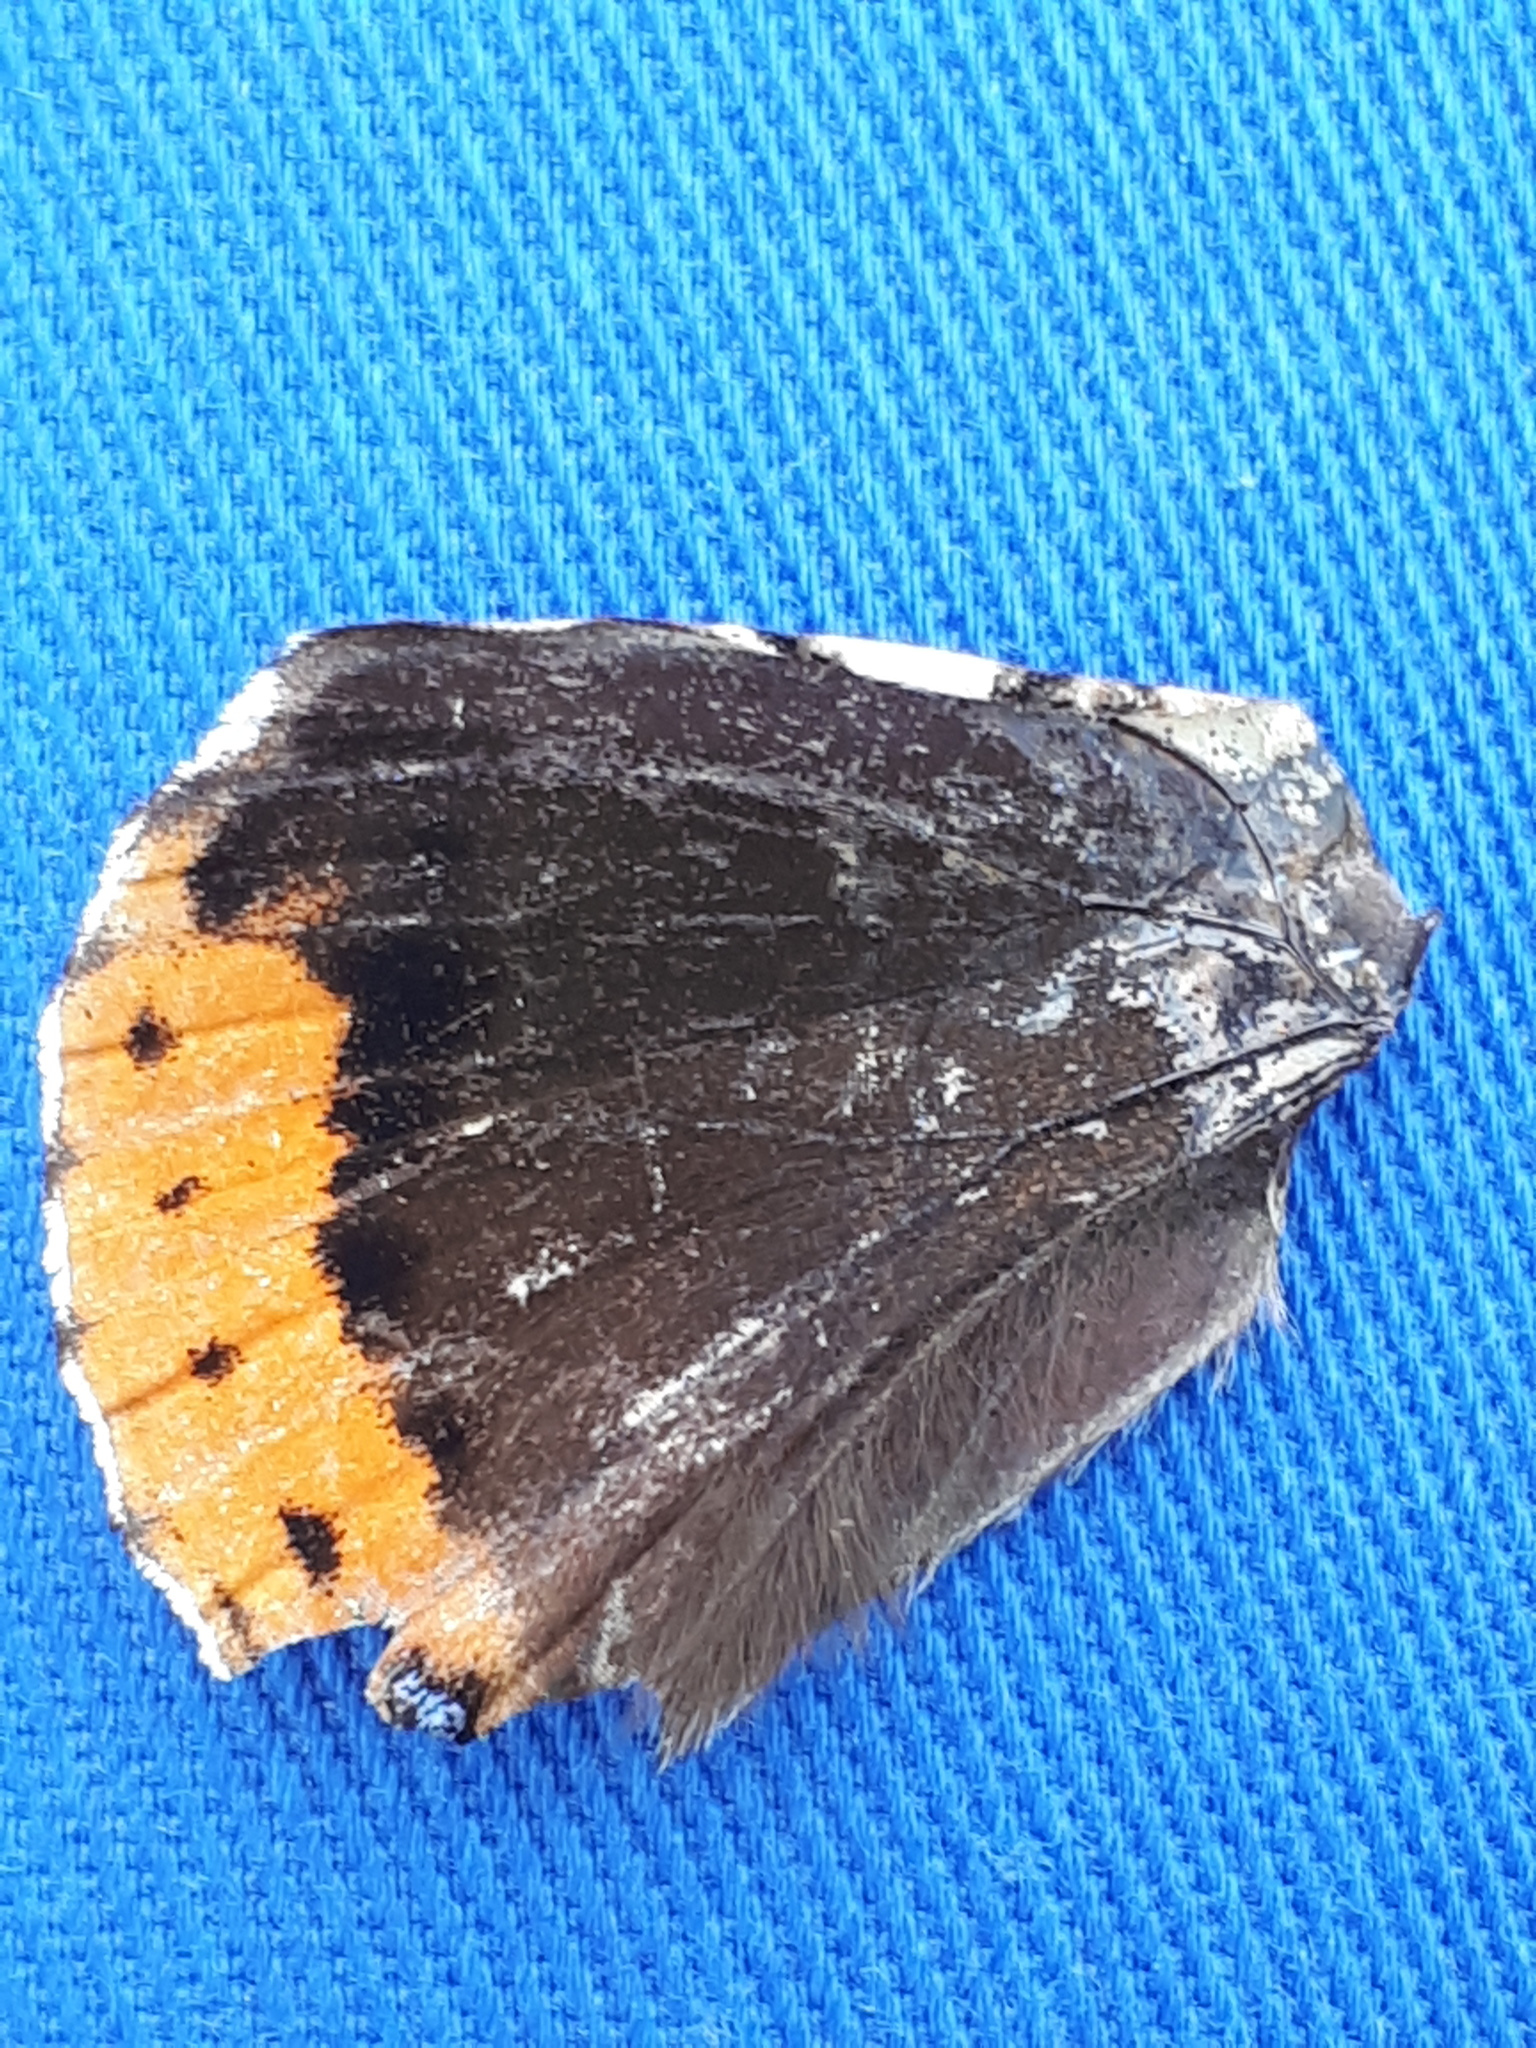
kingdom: Animalia
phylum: Arthropoda
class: Insecta
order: Lepidoptera
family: Nymphalidae
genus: Vanessa
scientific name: Vanessa atalanta
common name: Red admiral
